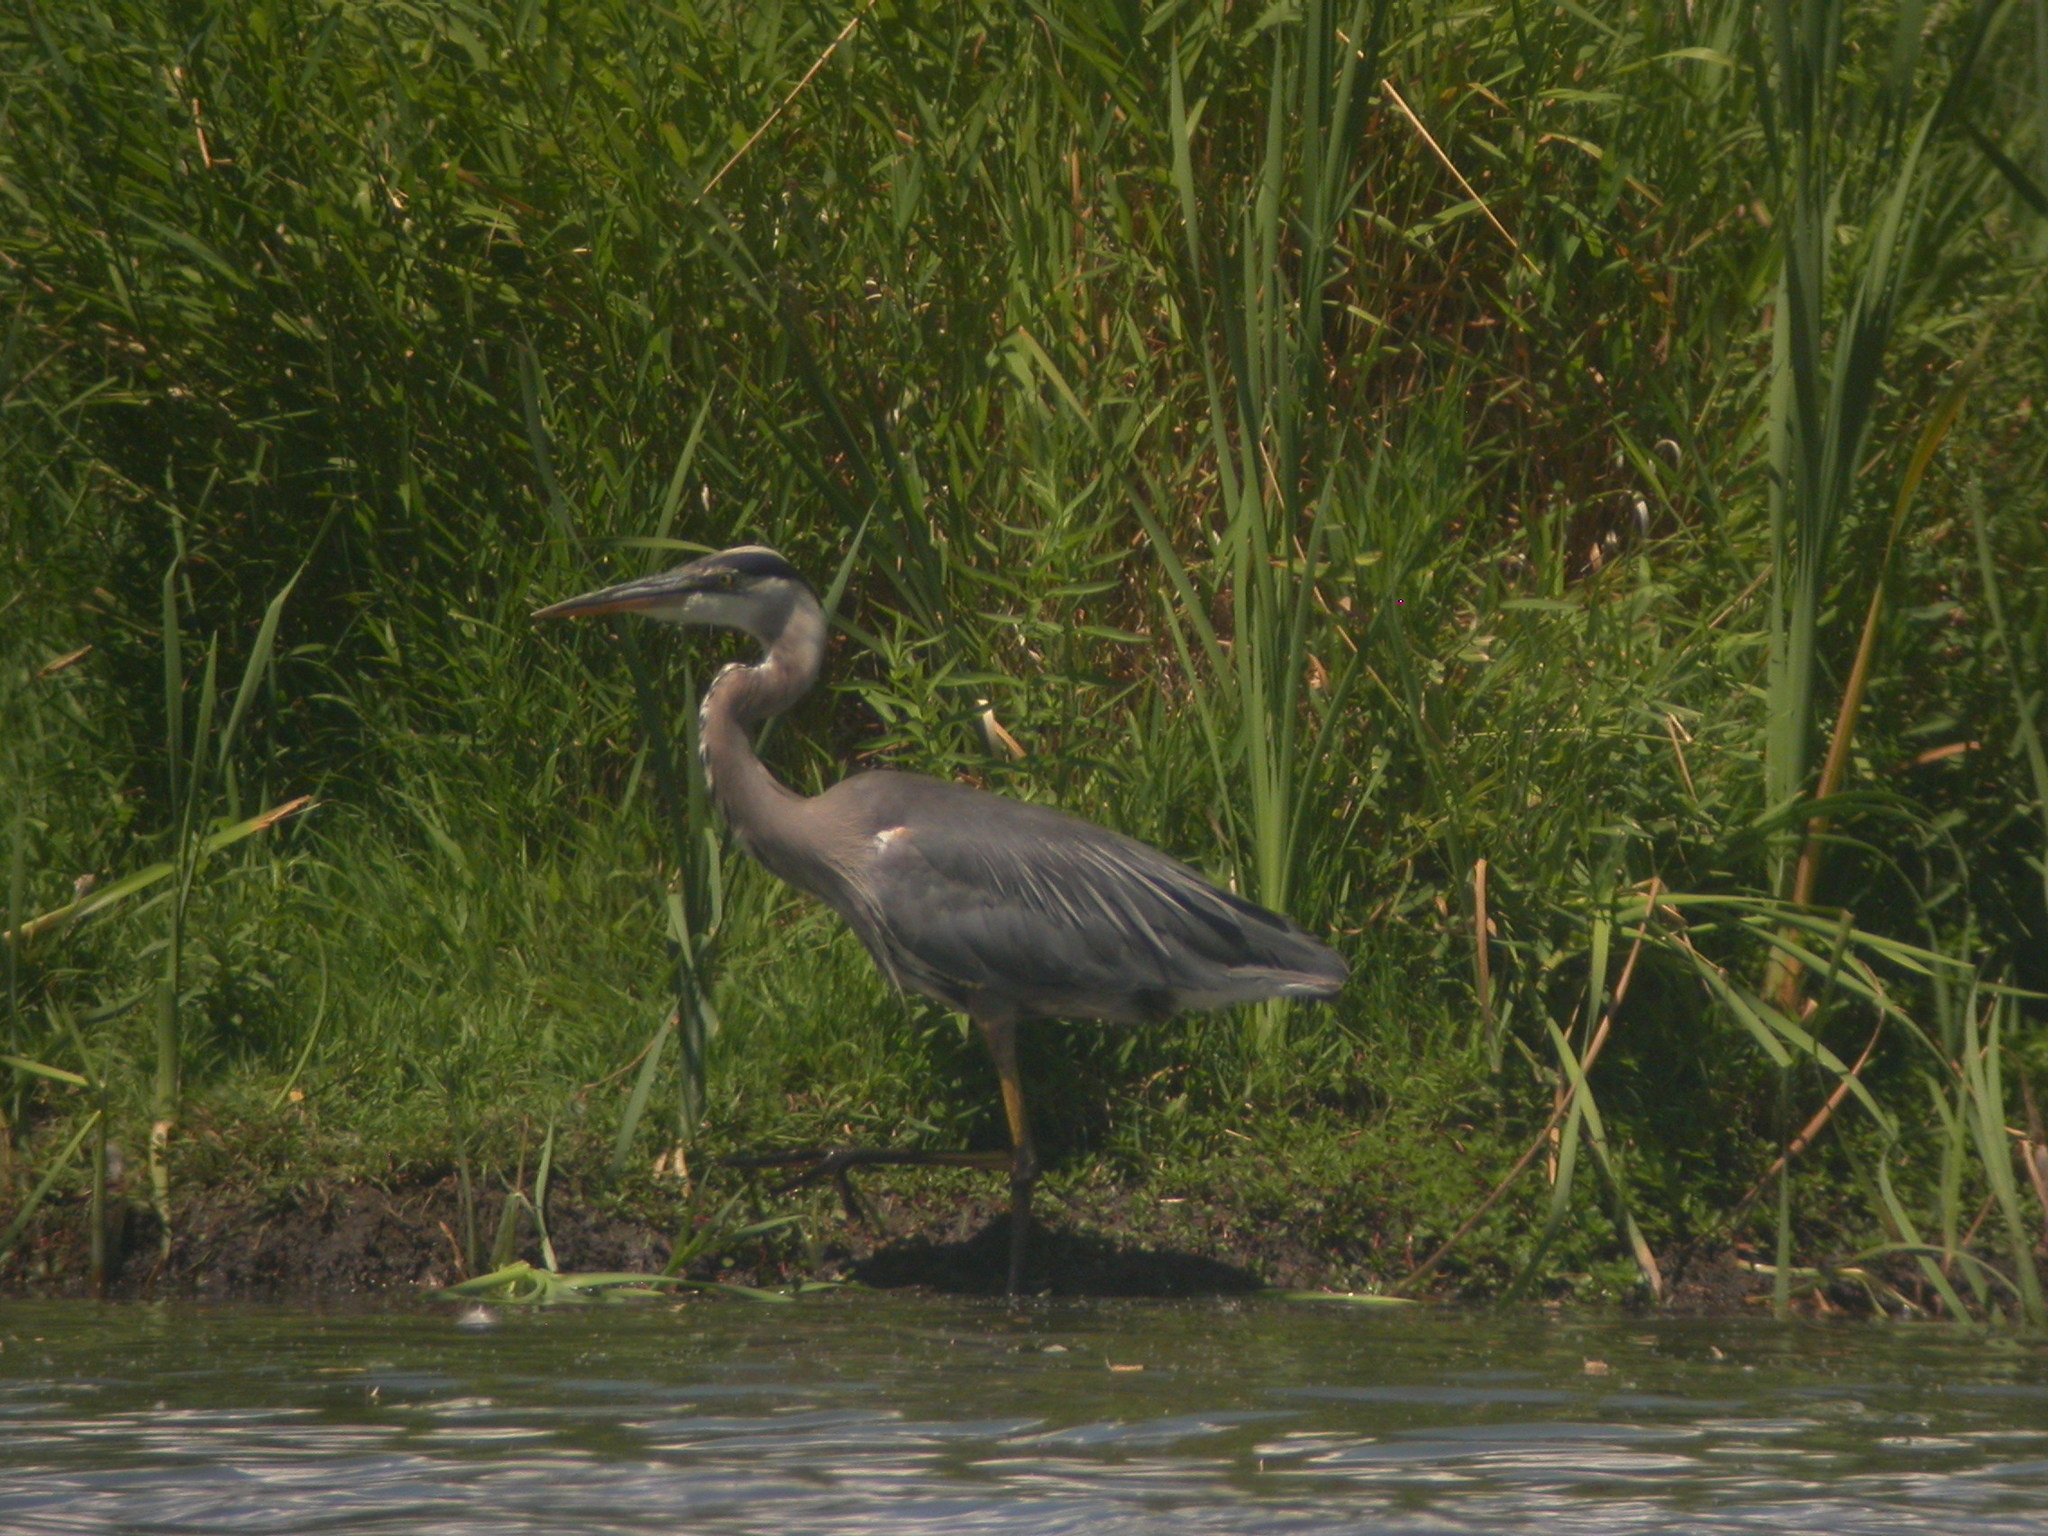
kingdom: Animalia
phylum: Chordata
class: Aves
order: Pelecaniformes
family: Ardeidae
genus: Ardea
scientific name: Ardea herodias
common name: Great blue heron
